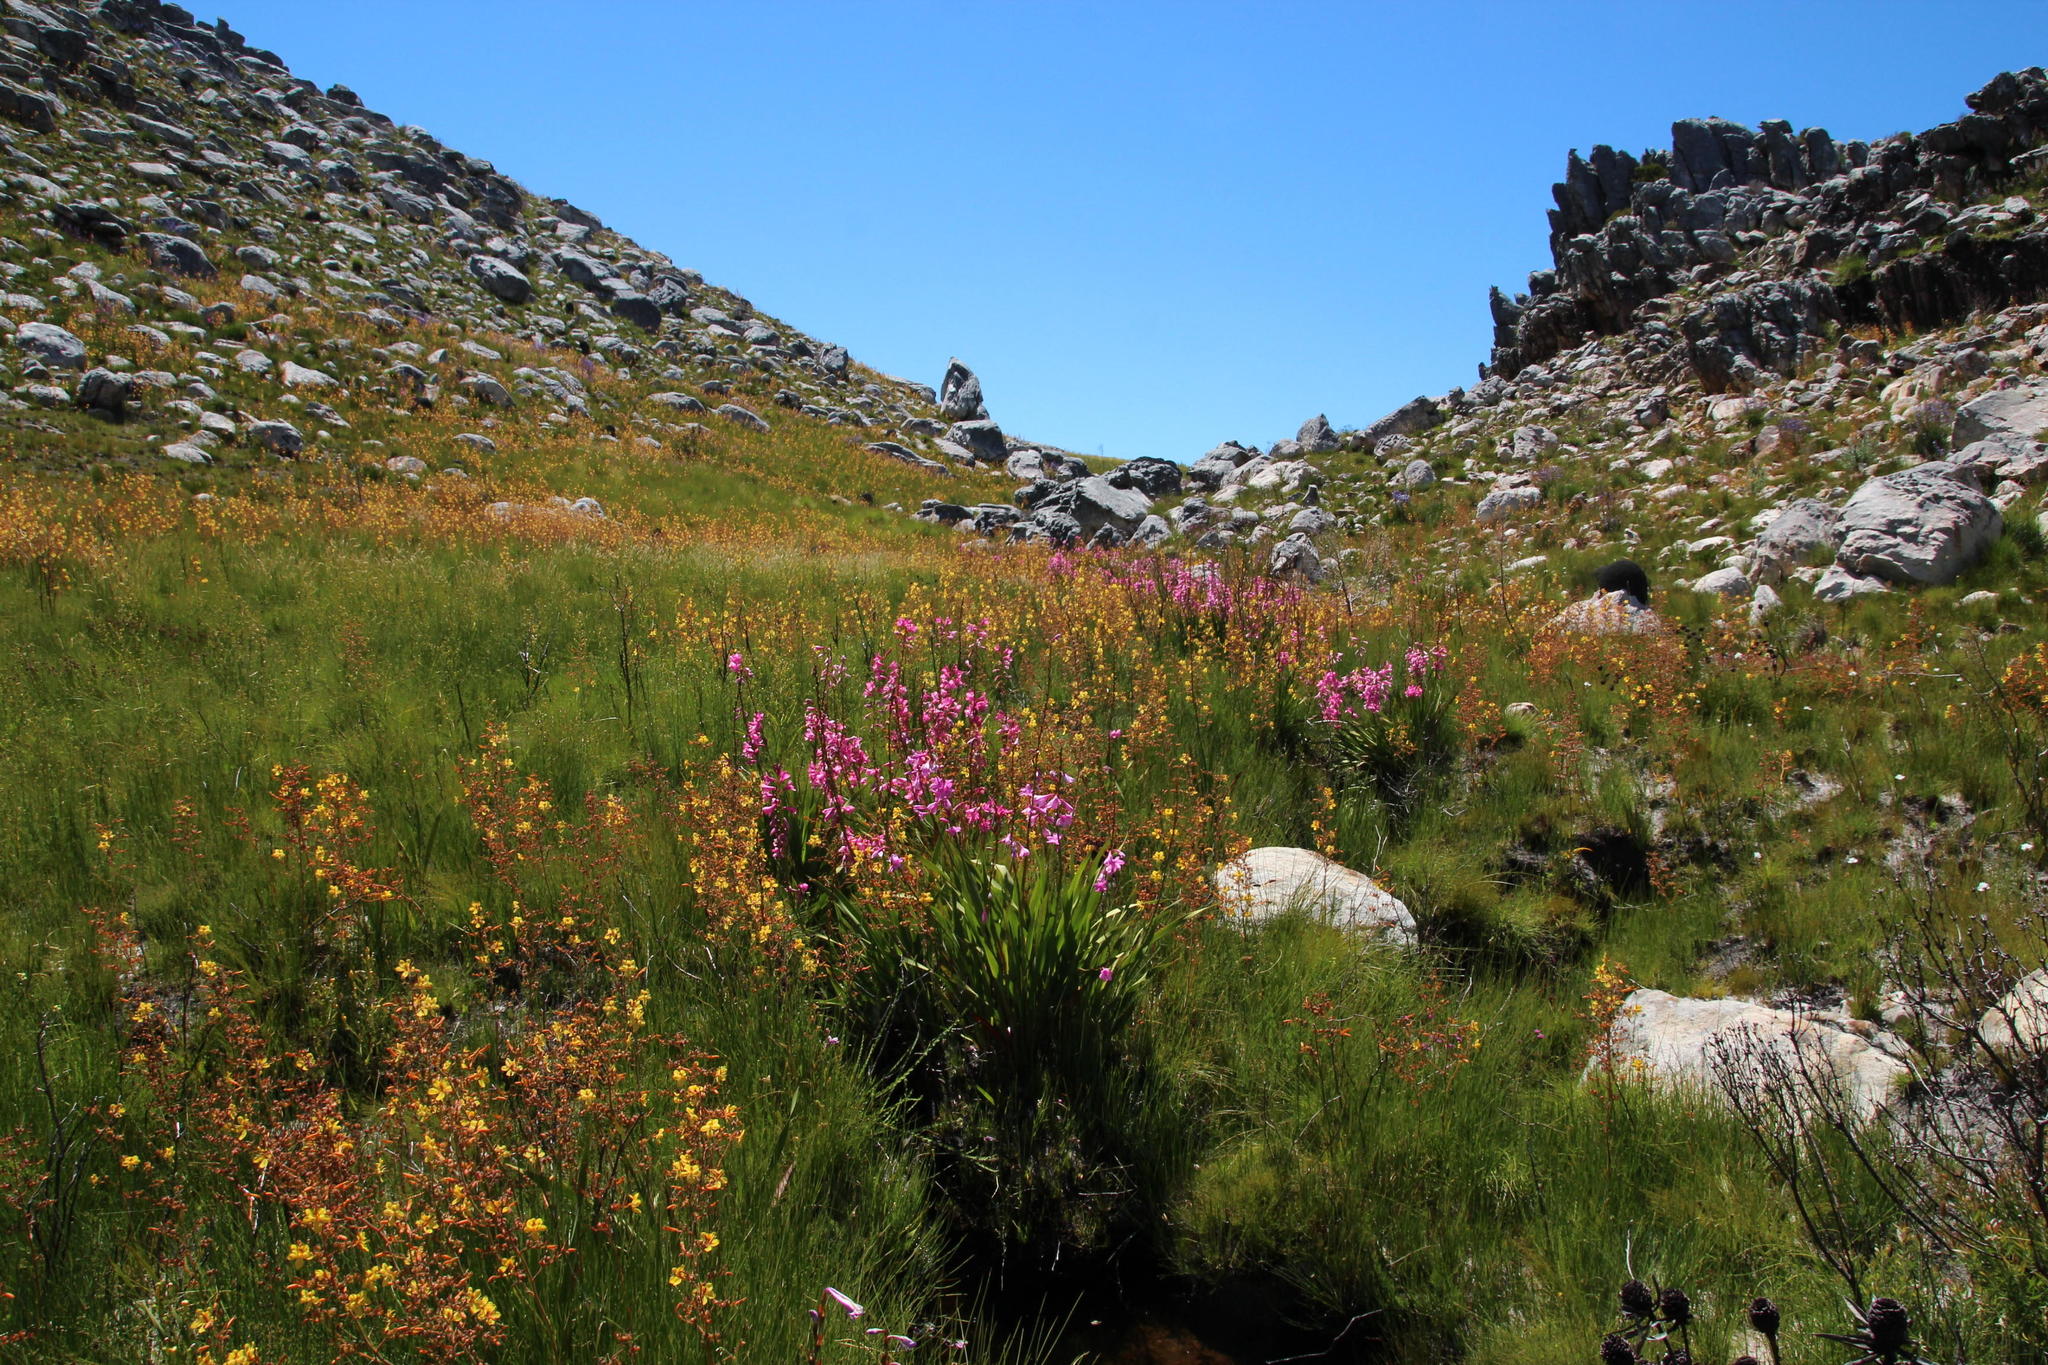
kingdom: Plantae
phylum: Tracheophyta
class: Liliopsida
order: Asparagales
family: Iridaceae
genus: Watsonia
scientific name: Watsonia borbonica
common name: Bugle-lily
